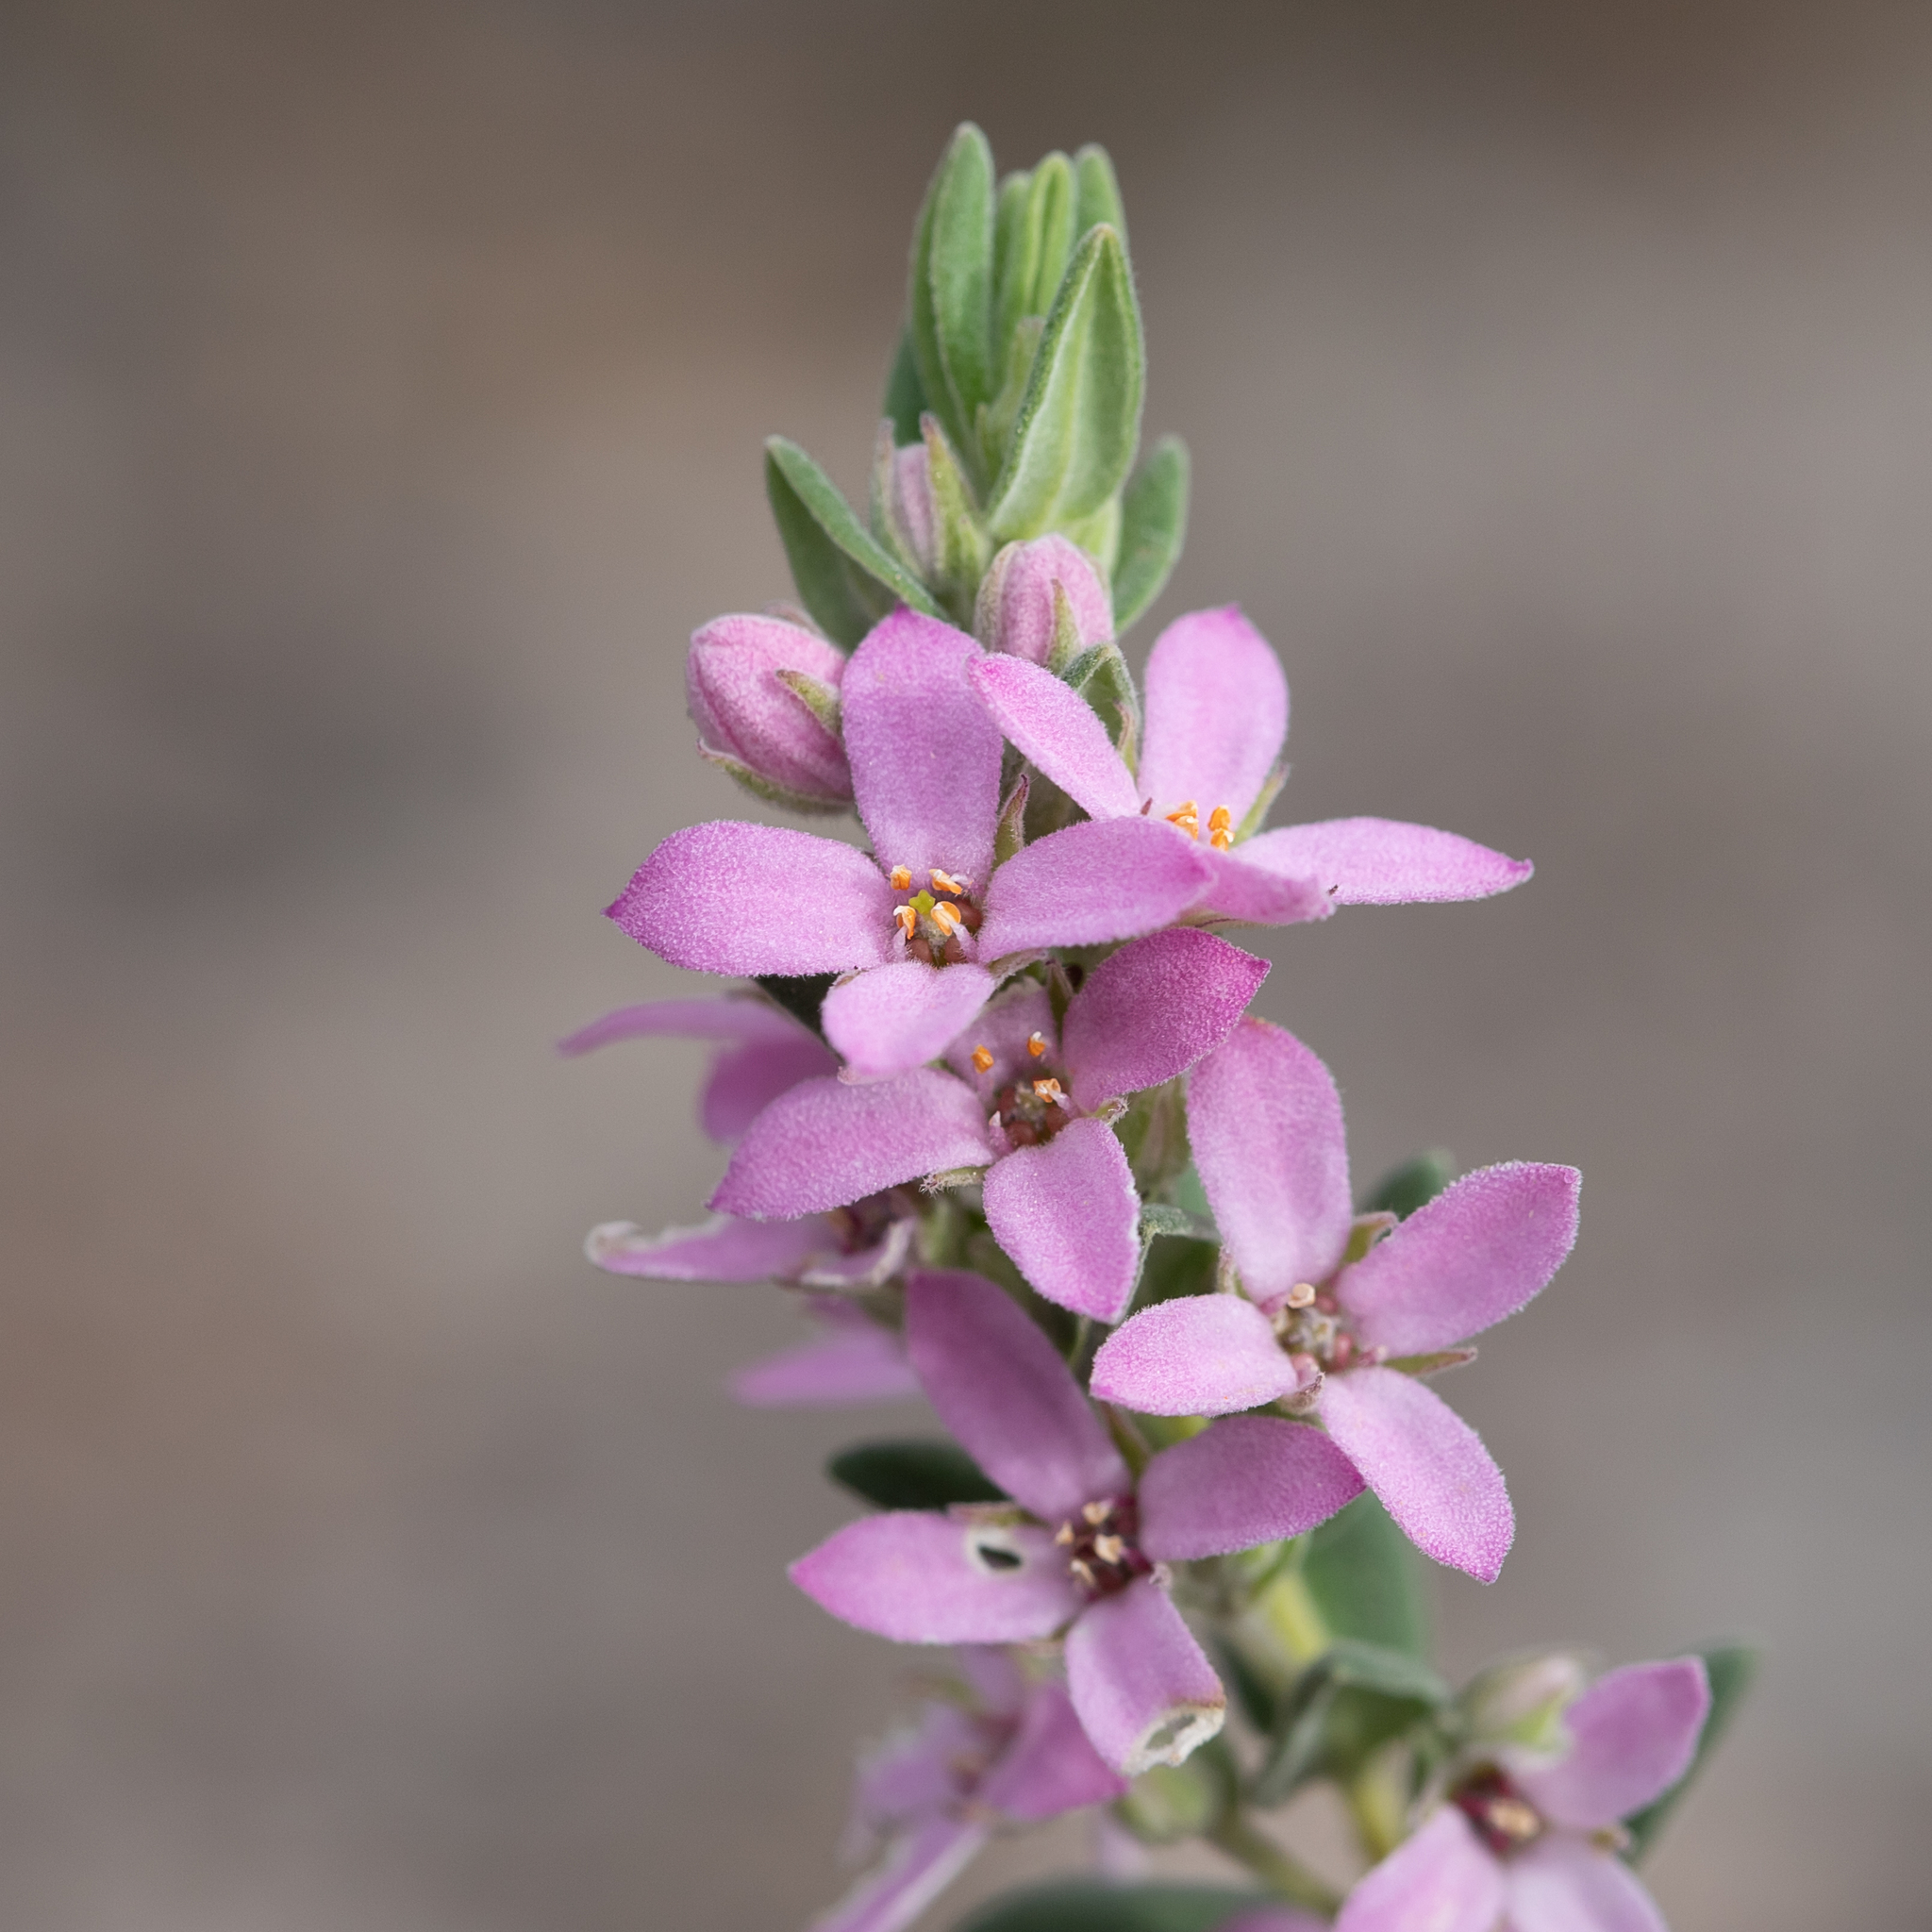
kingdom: Plantae
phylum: Tracheophyta
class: Magnoliopsida
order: Sapindales
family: Rutaceae
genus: Zieria
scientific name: Zieria veronicea
